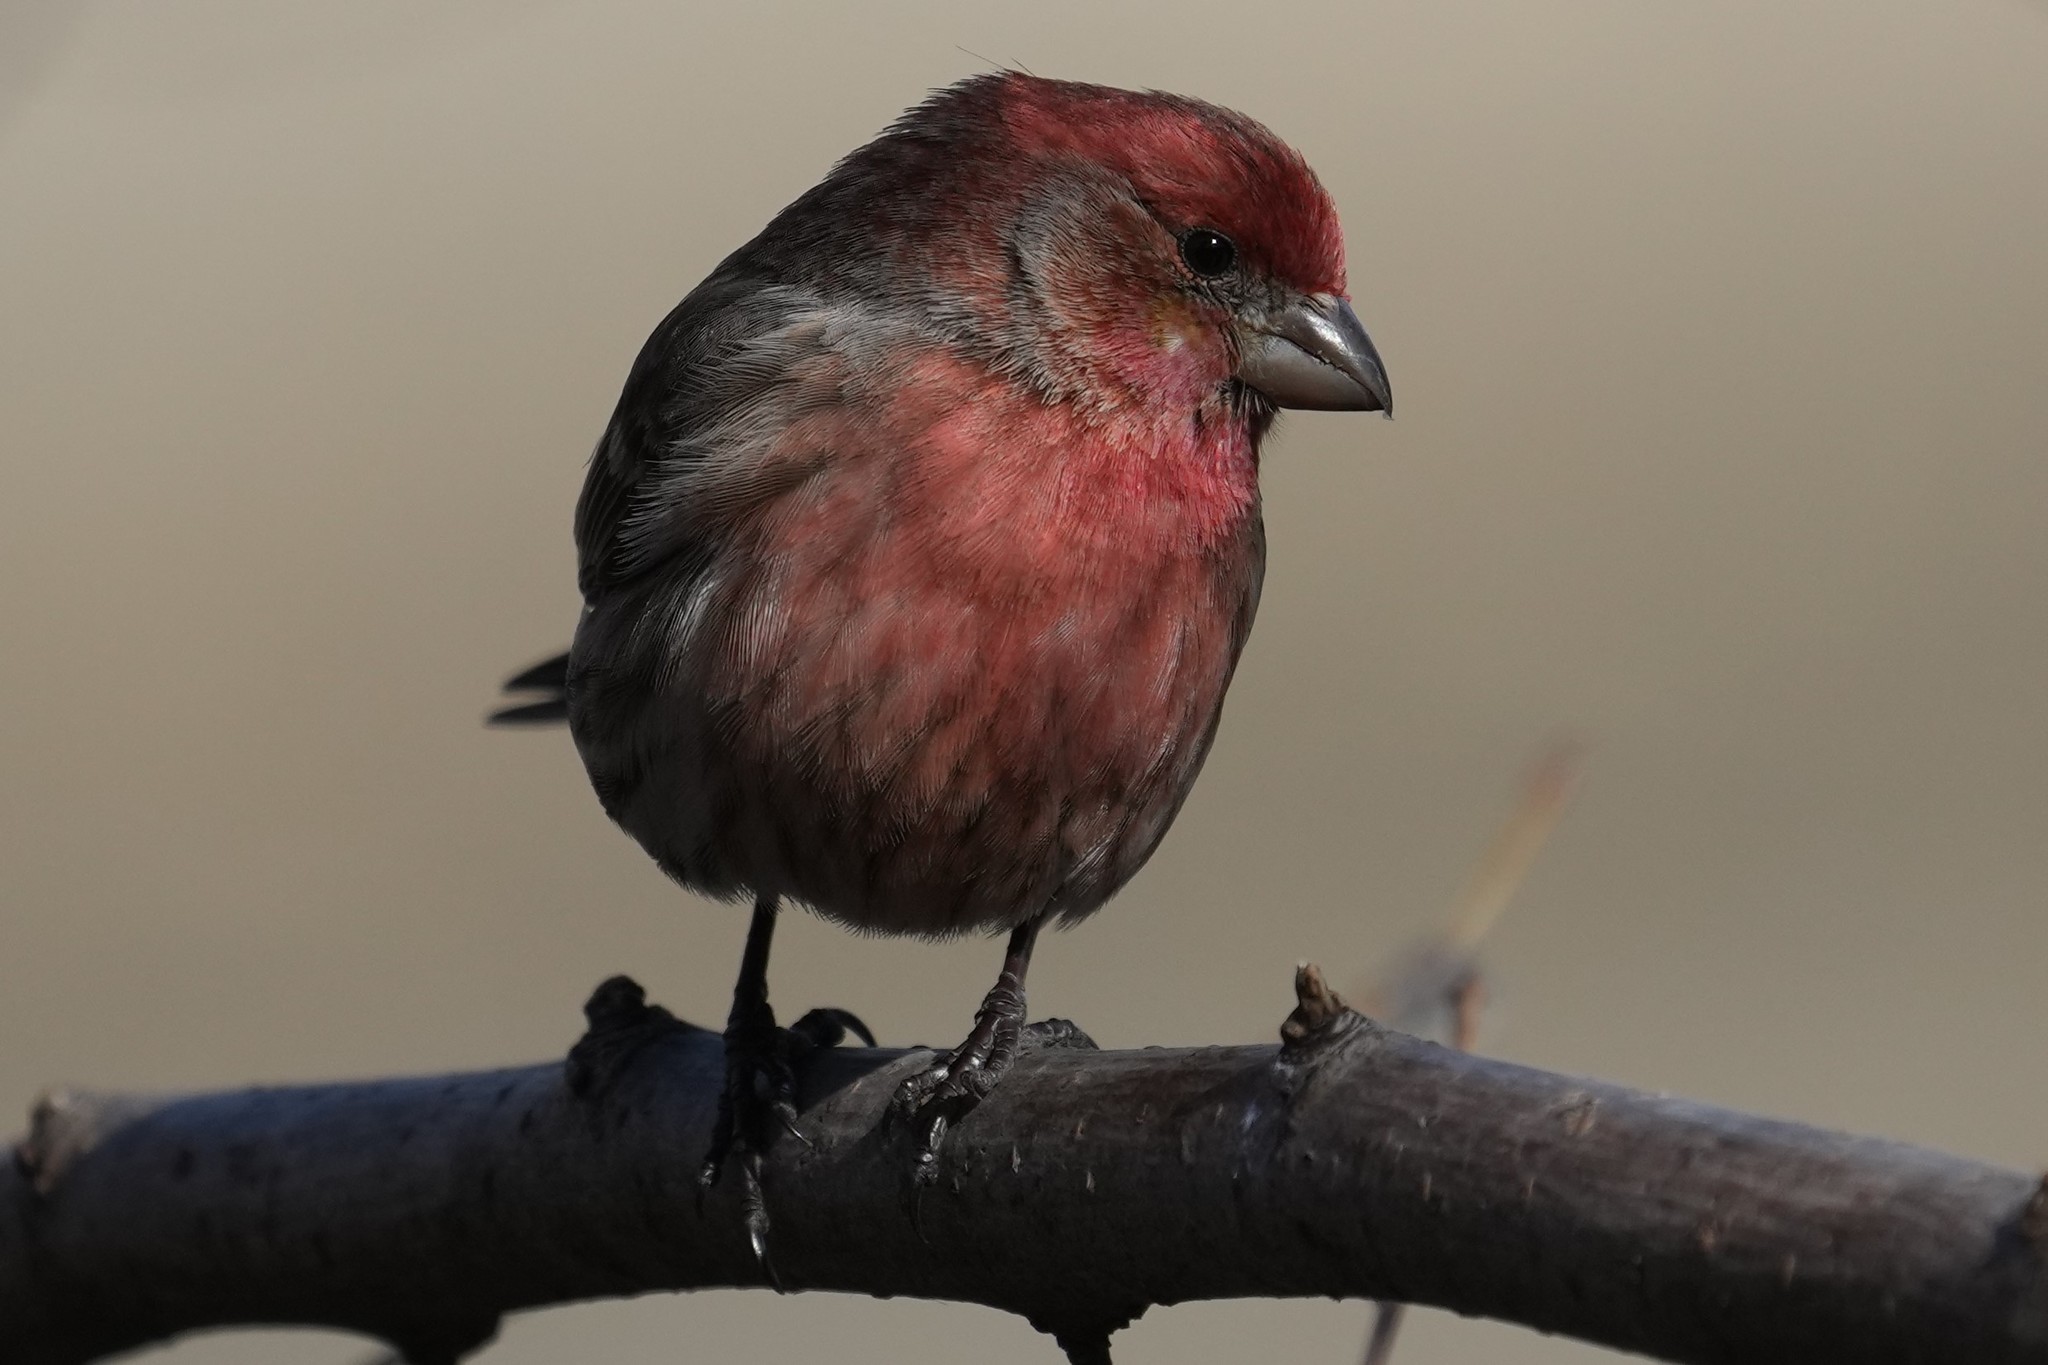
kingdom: Animalia
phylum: Chordata
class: Aves
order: Passeriformes
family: Fringillidae
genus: Haemorhous
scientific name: Haemorhous mexicanus
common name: House finch
